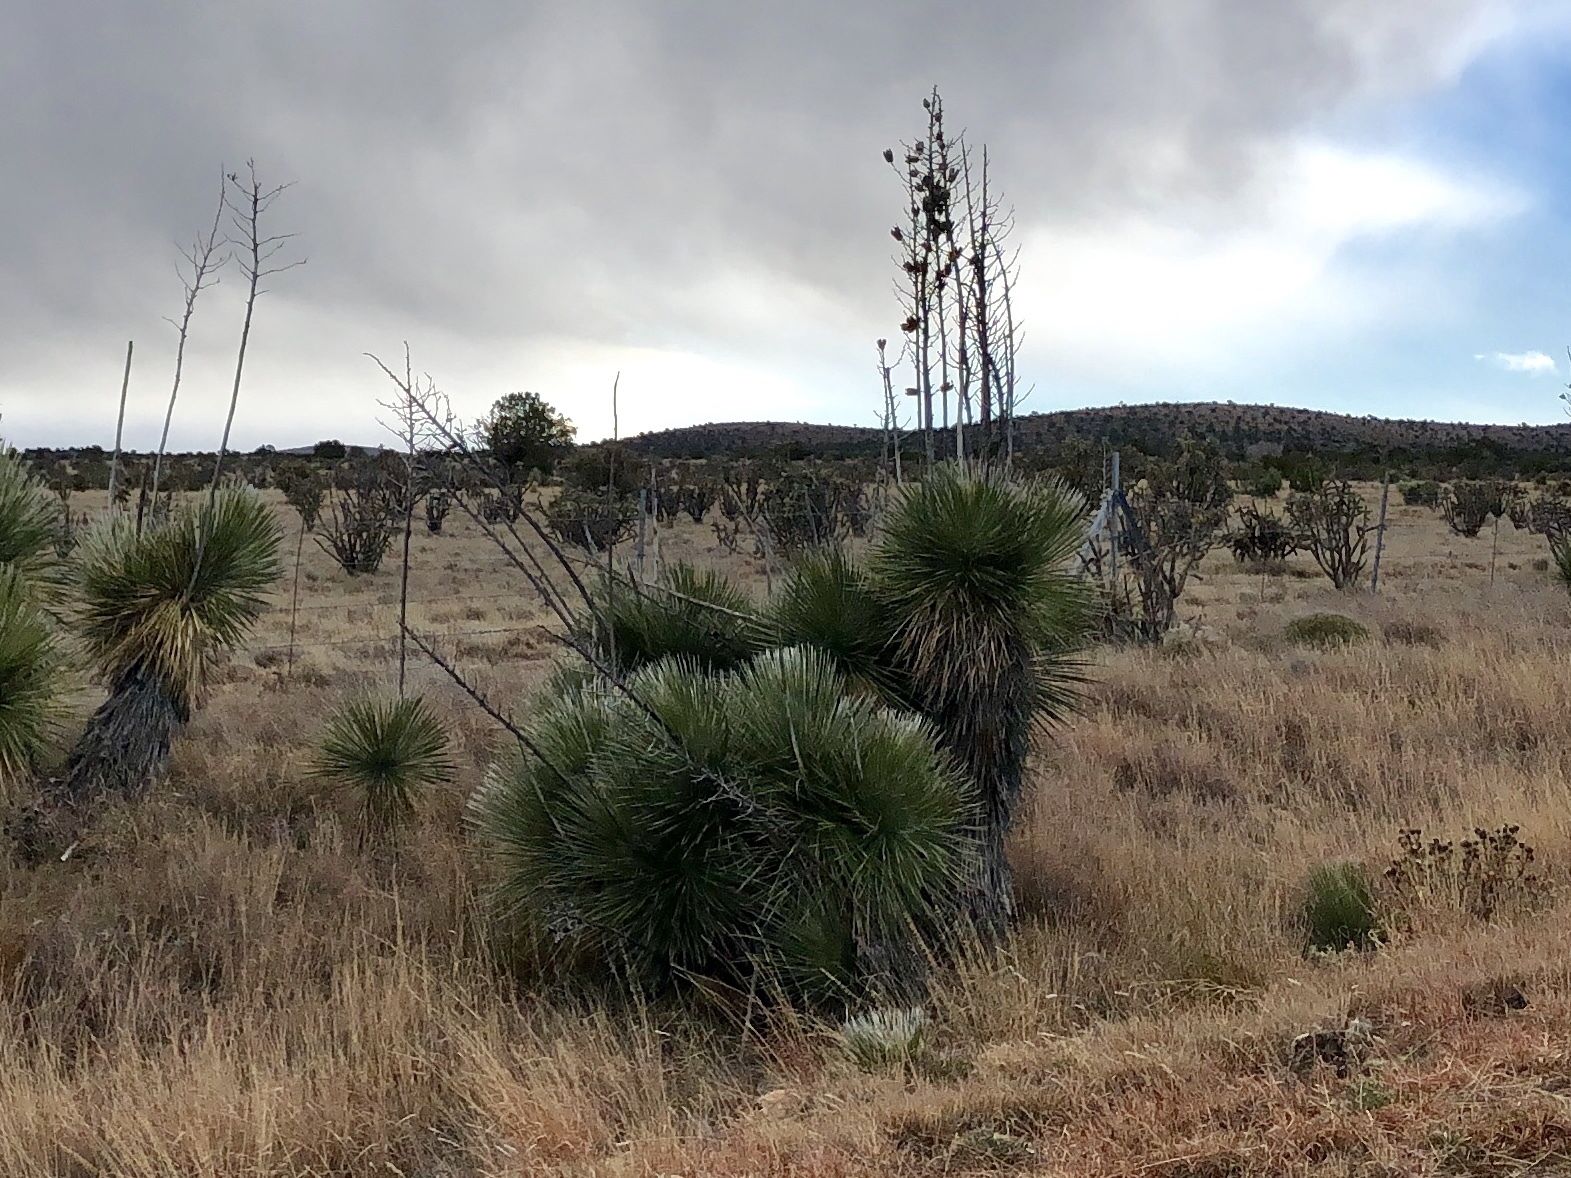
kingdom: Plantae
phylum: Tracheophyta
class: Liliopsida
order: Asparagales
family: Asparagaceae
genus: Yucca
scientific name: Yucca elata
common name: Palmella
